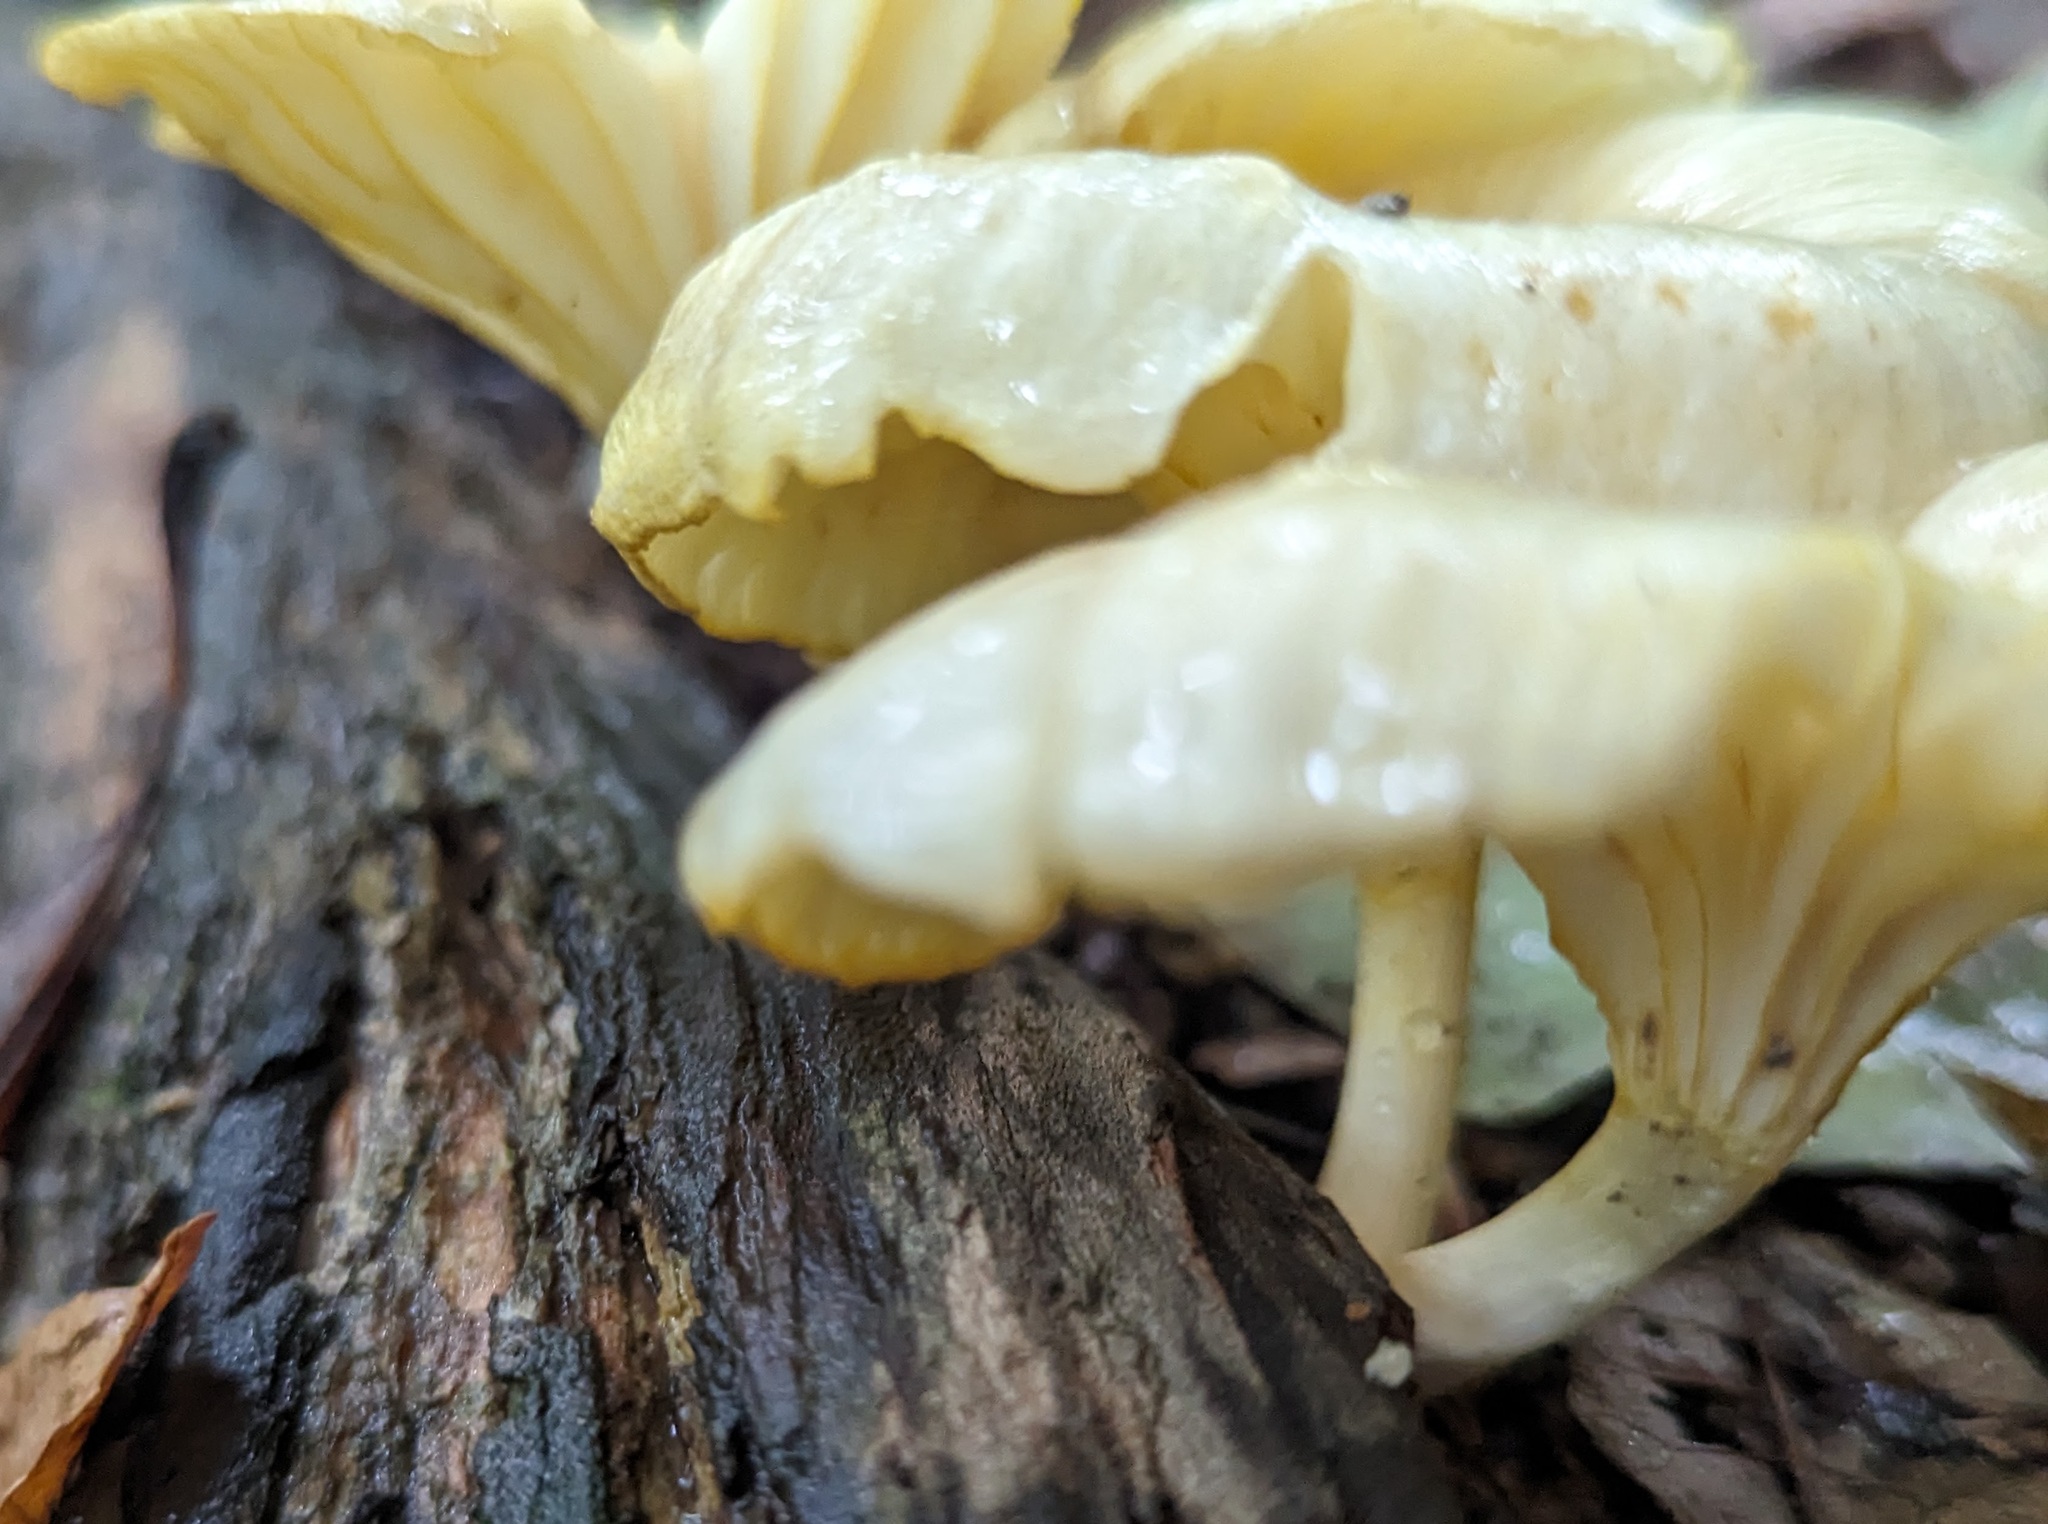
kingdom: Fungi
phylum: Basidiomycota
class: Agaricomycetes
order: Agaricales
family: Marasmiaceae
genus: Gerronema
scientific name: Gerronema strombodes
